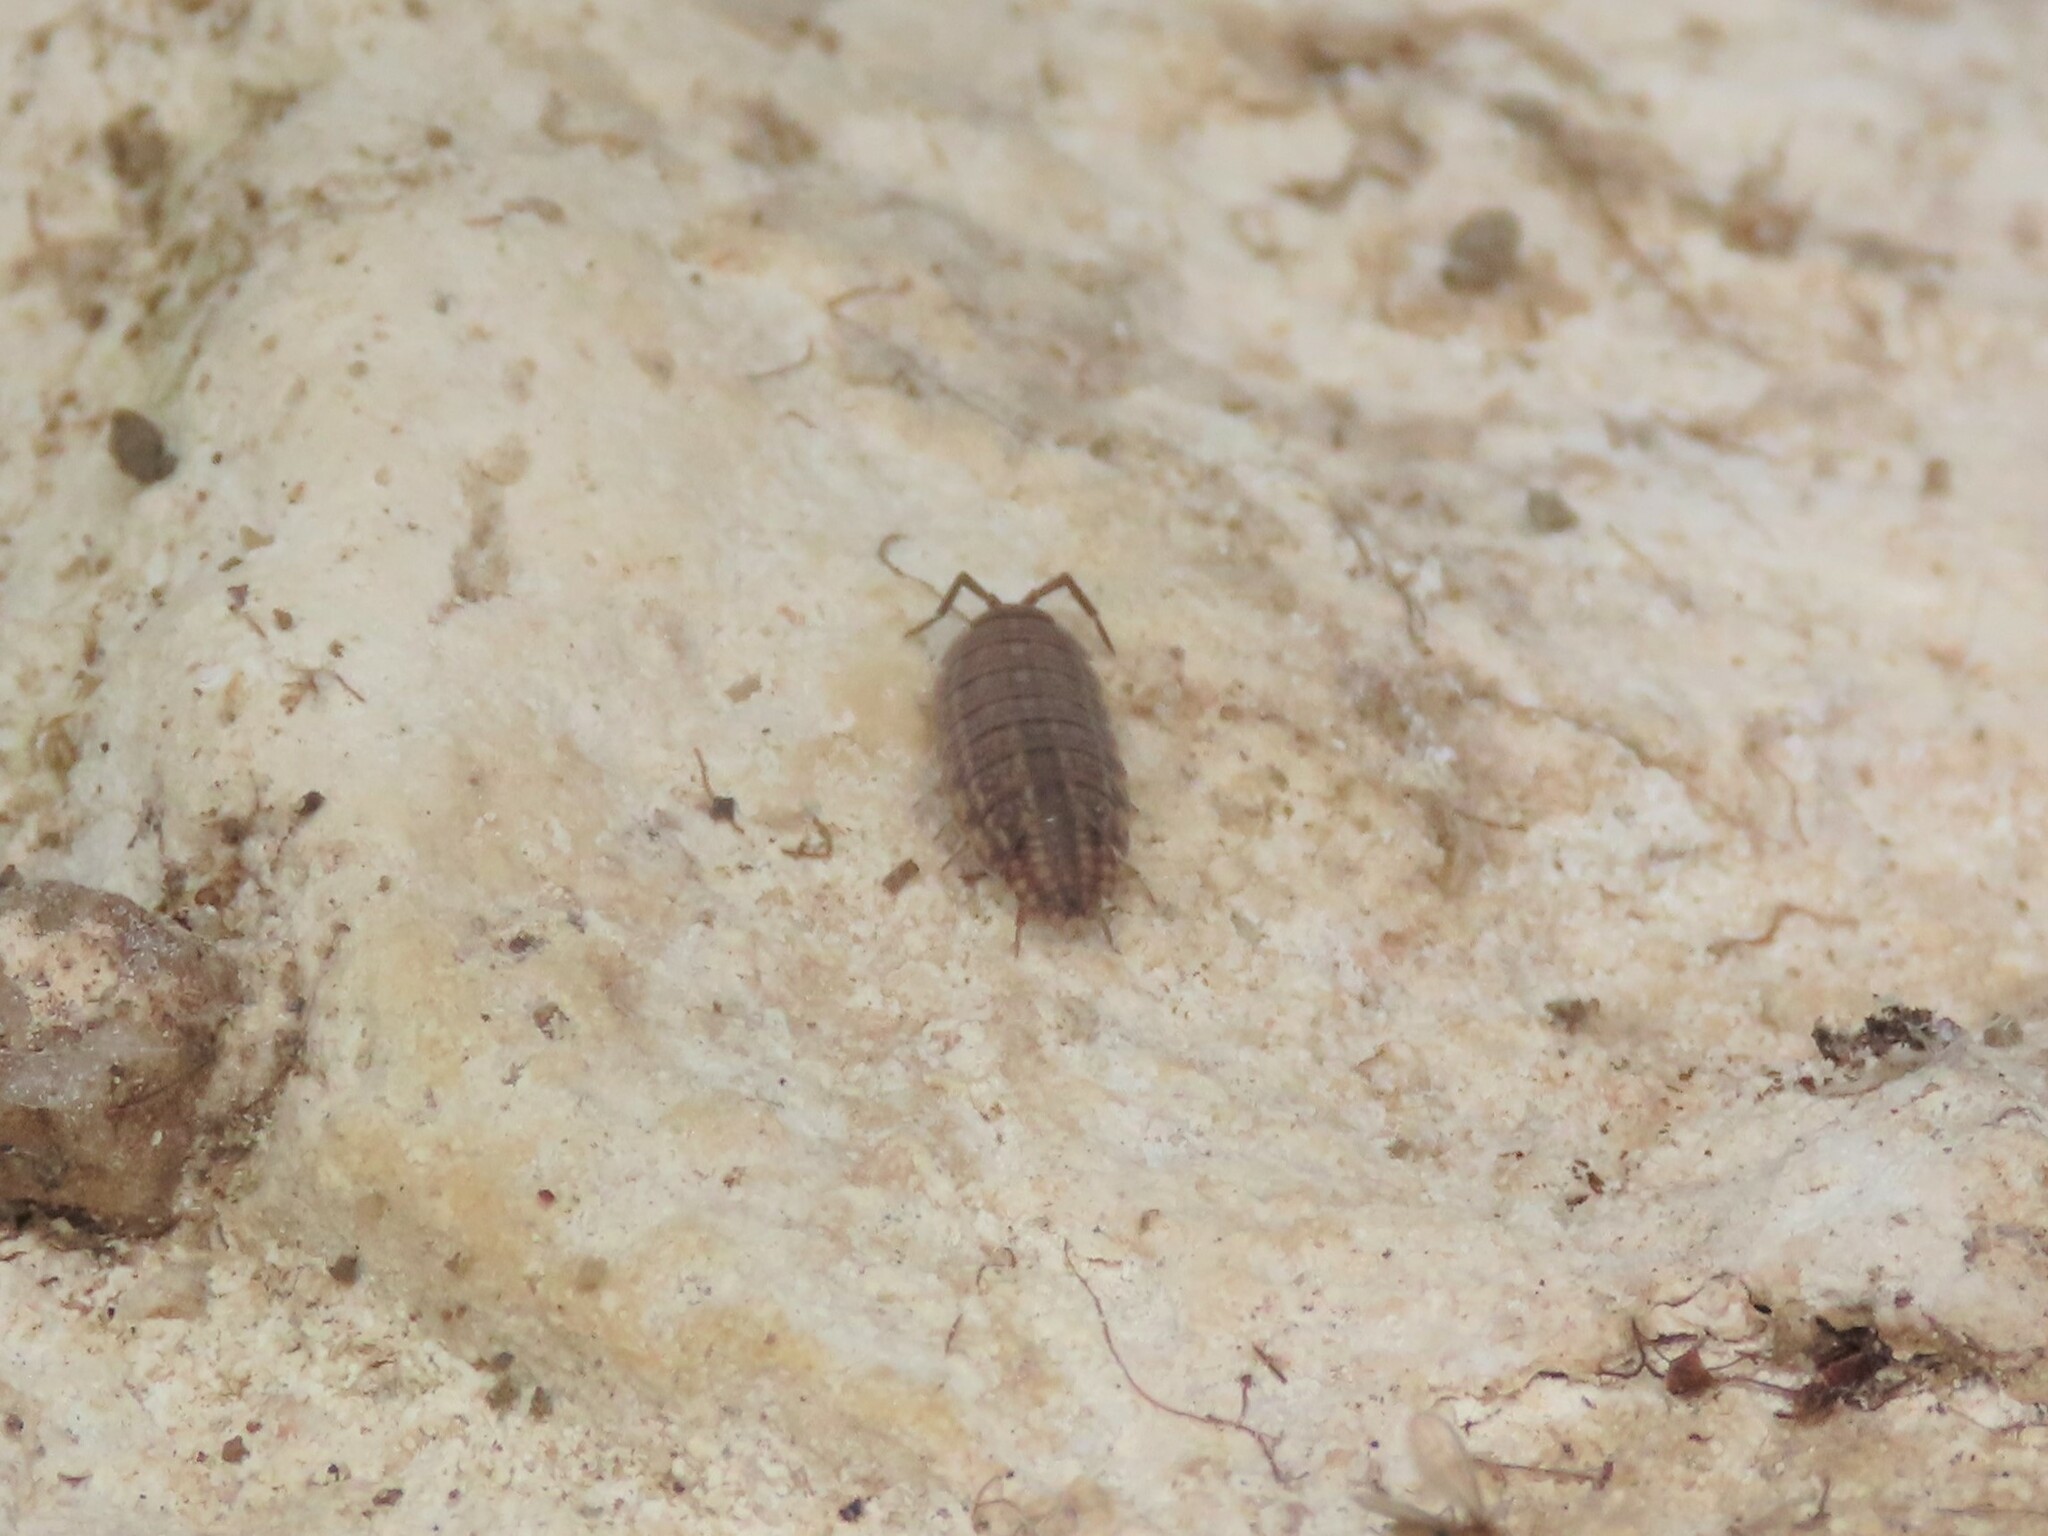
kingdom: Animalia
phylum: Arthropoda
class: Malacostraca
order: Isopoda
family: Porcellionidae
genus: Porcellionides
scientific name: Porcellionides sexfasciatus
